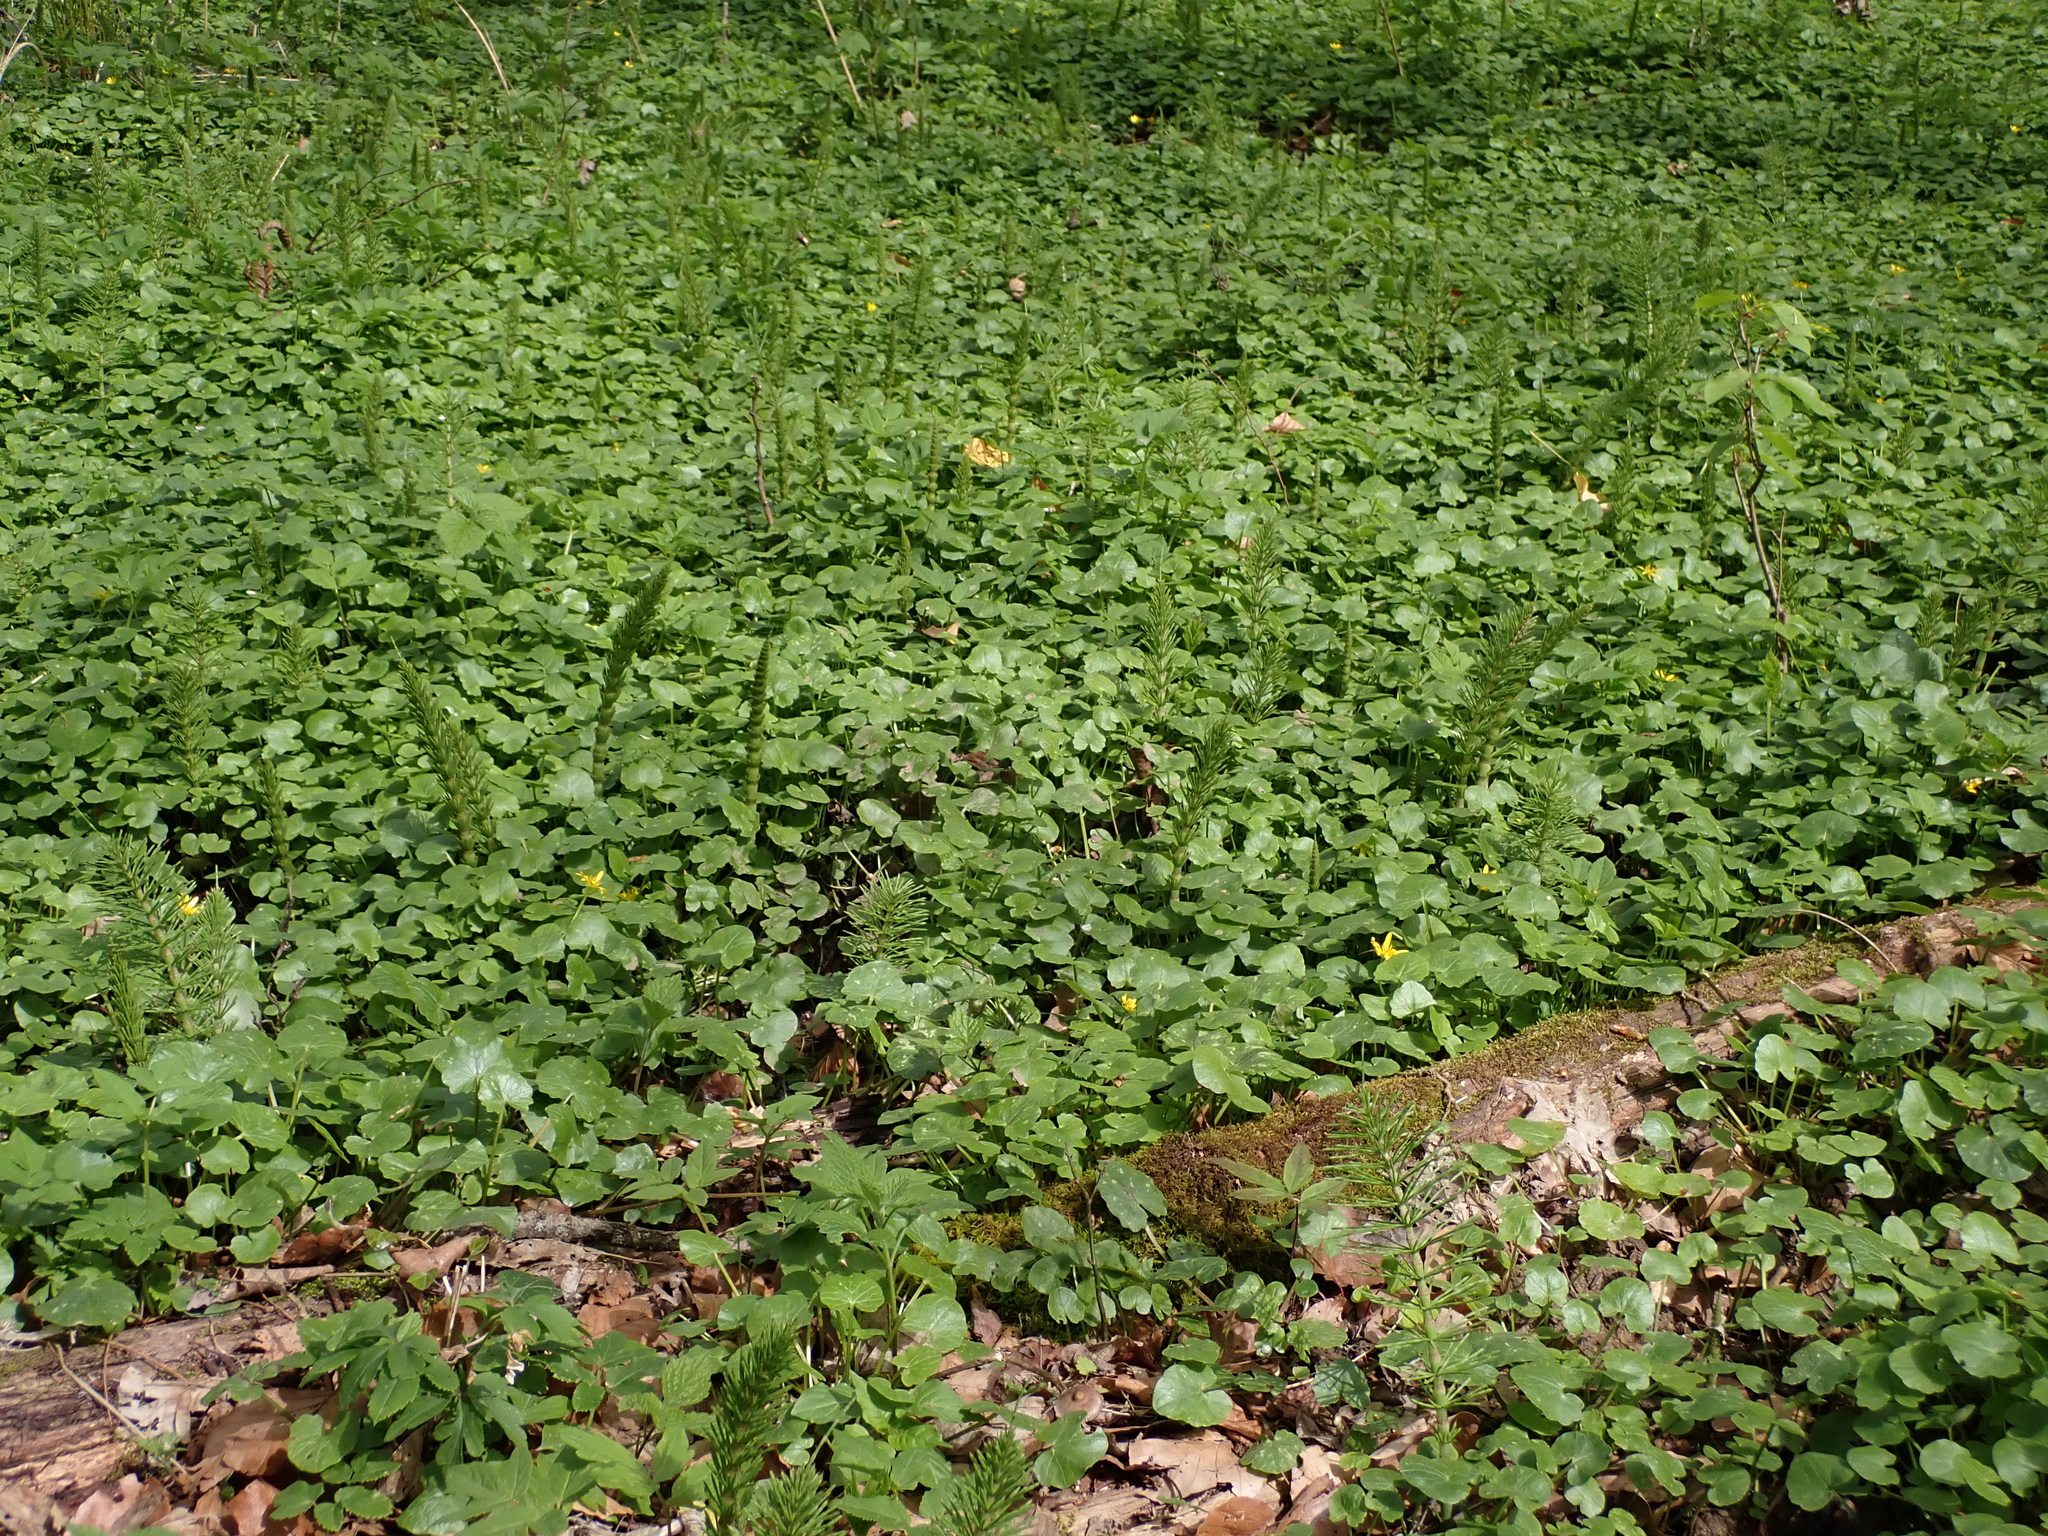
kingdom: Plantae
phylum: Tracheophyta
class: Magnoliopsida
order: Ranunculales
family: Ranunculaceae
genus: Ficaria
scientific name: Ficaria verna
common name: Lesser celandine
